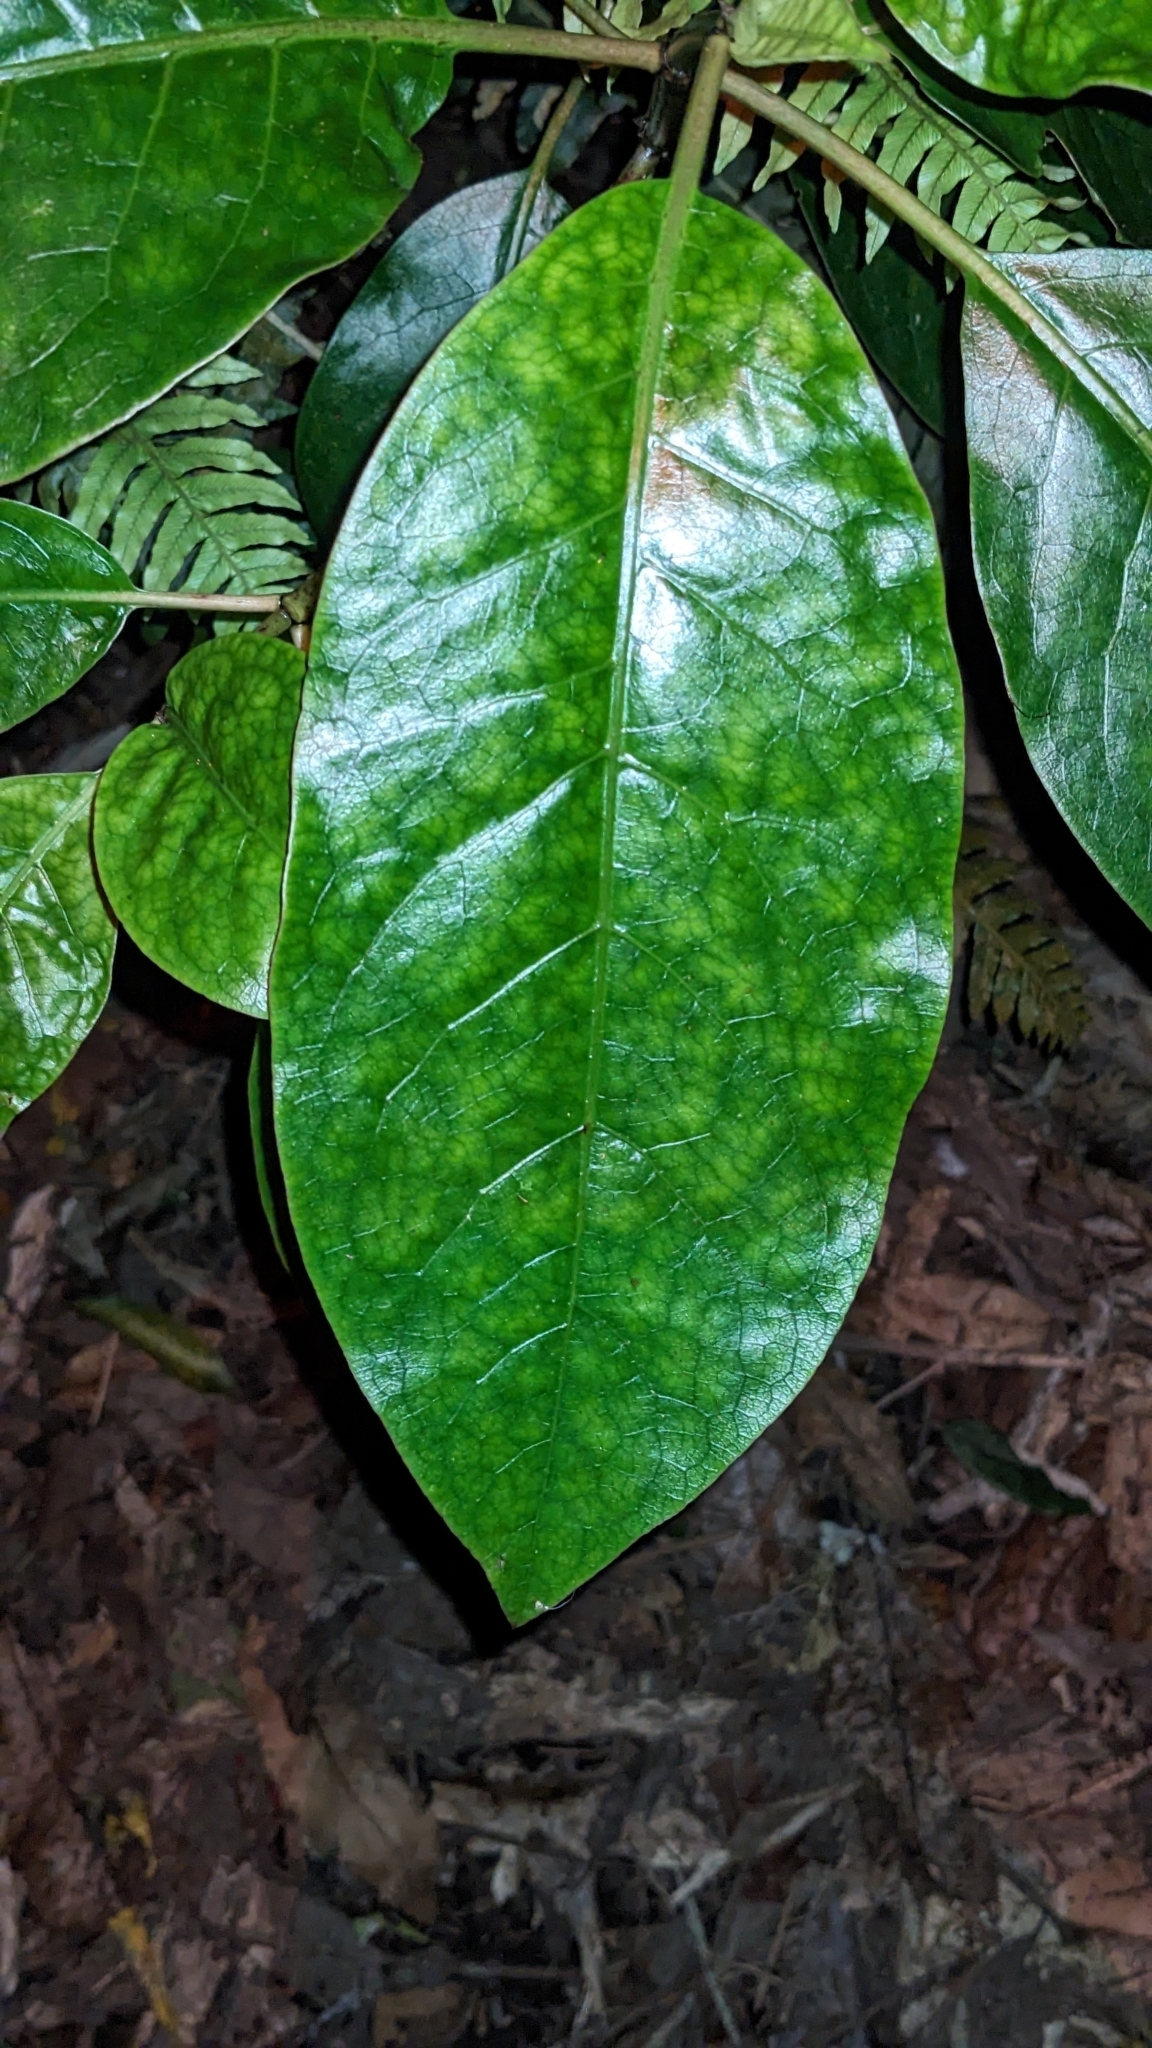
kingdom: Plantae
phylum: Tracheophyta
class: Magnoliopsida
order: Gentianales
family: Rubiaceae
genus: Coprosma
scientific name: Coprosma autumnalis
